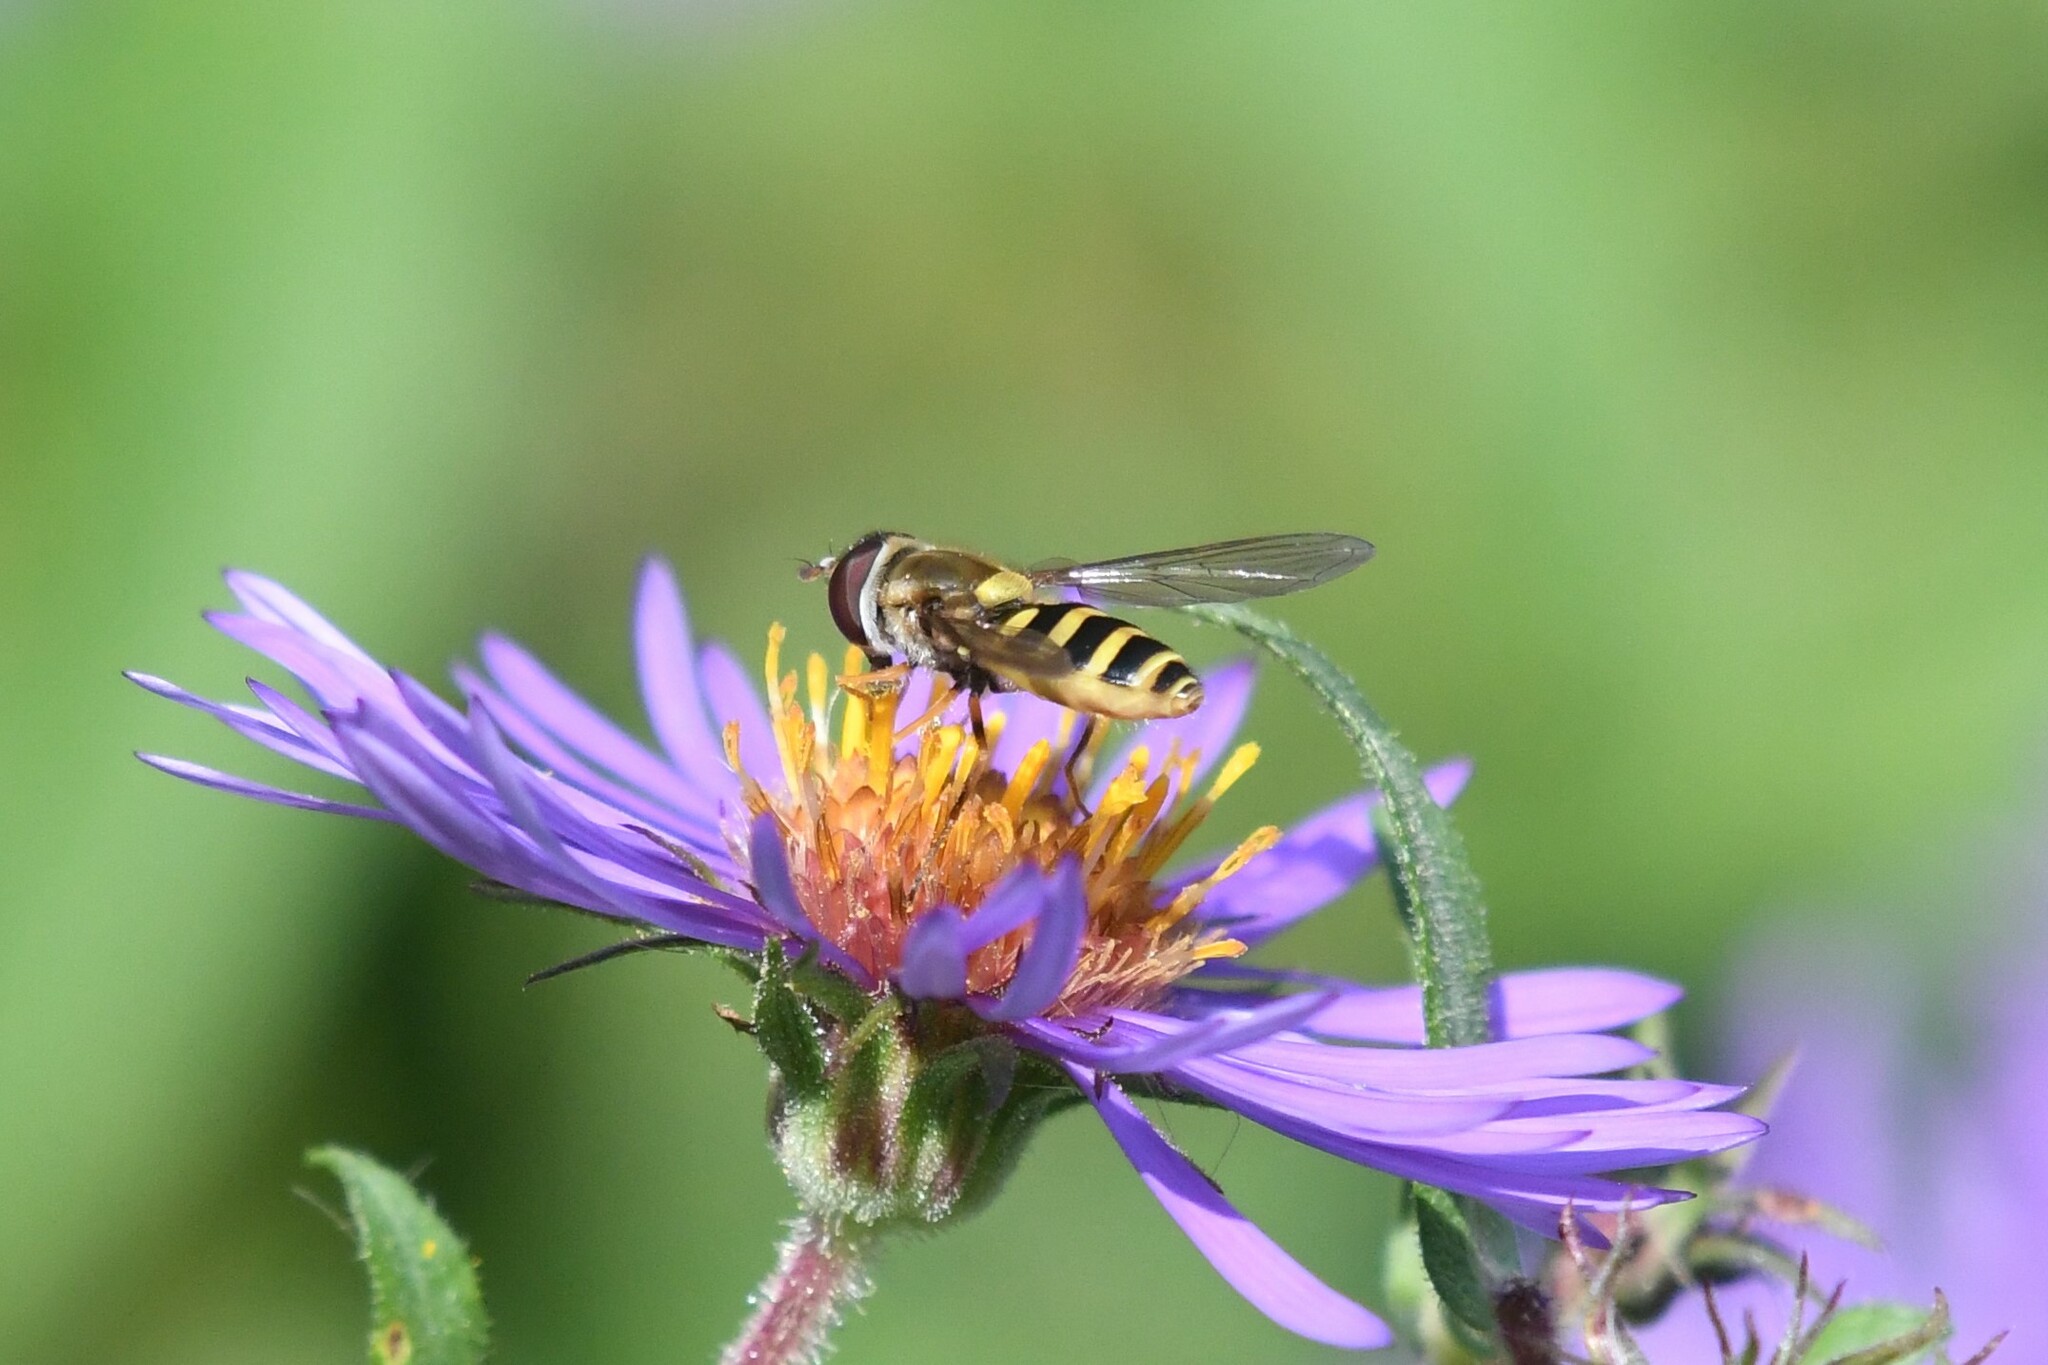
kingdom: Animalia
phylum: Arthropoda
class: Insecta
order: Diptera
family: Syrphidae
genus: Syrphus
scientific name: Syrphus rectus
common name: Yellow-legged flower fly
